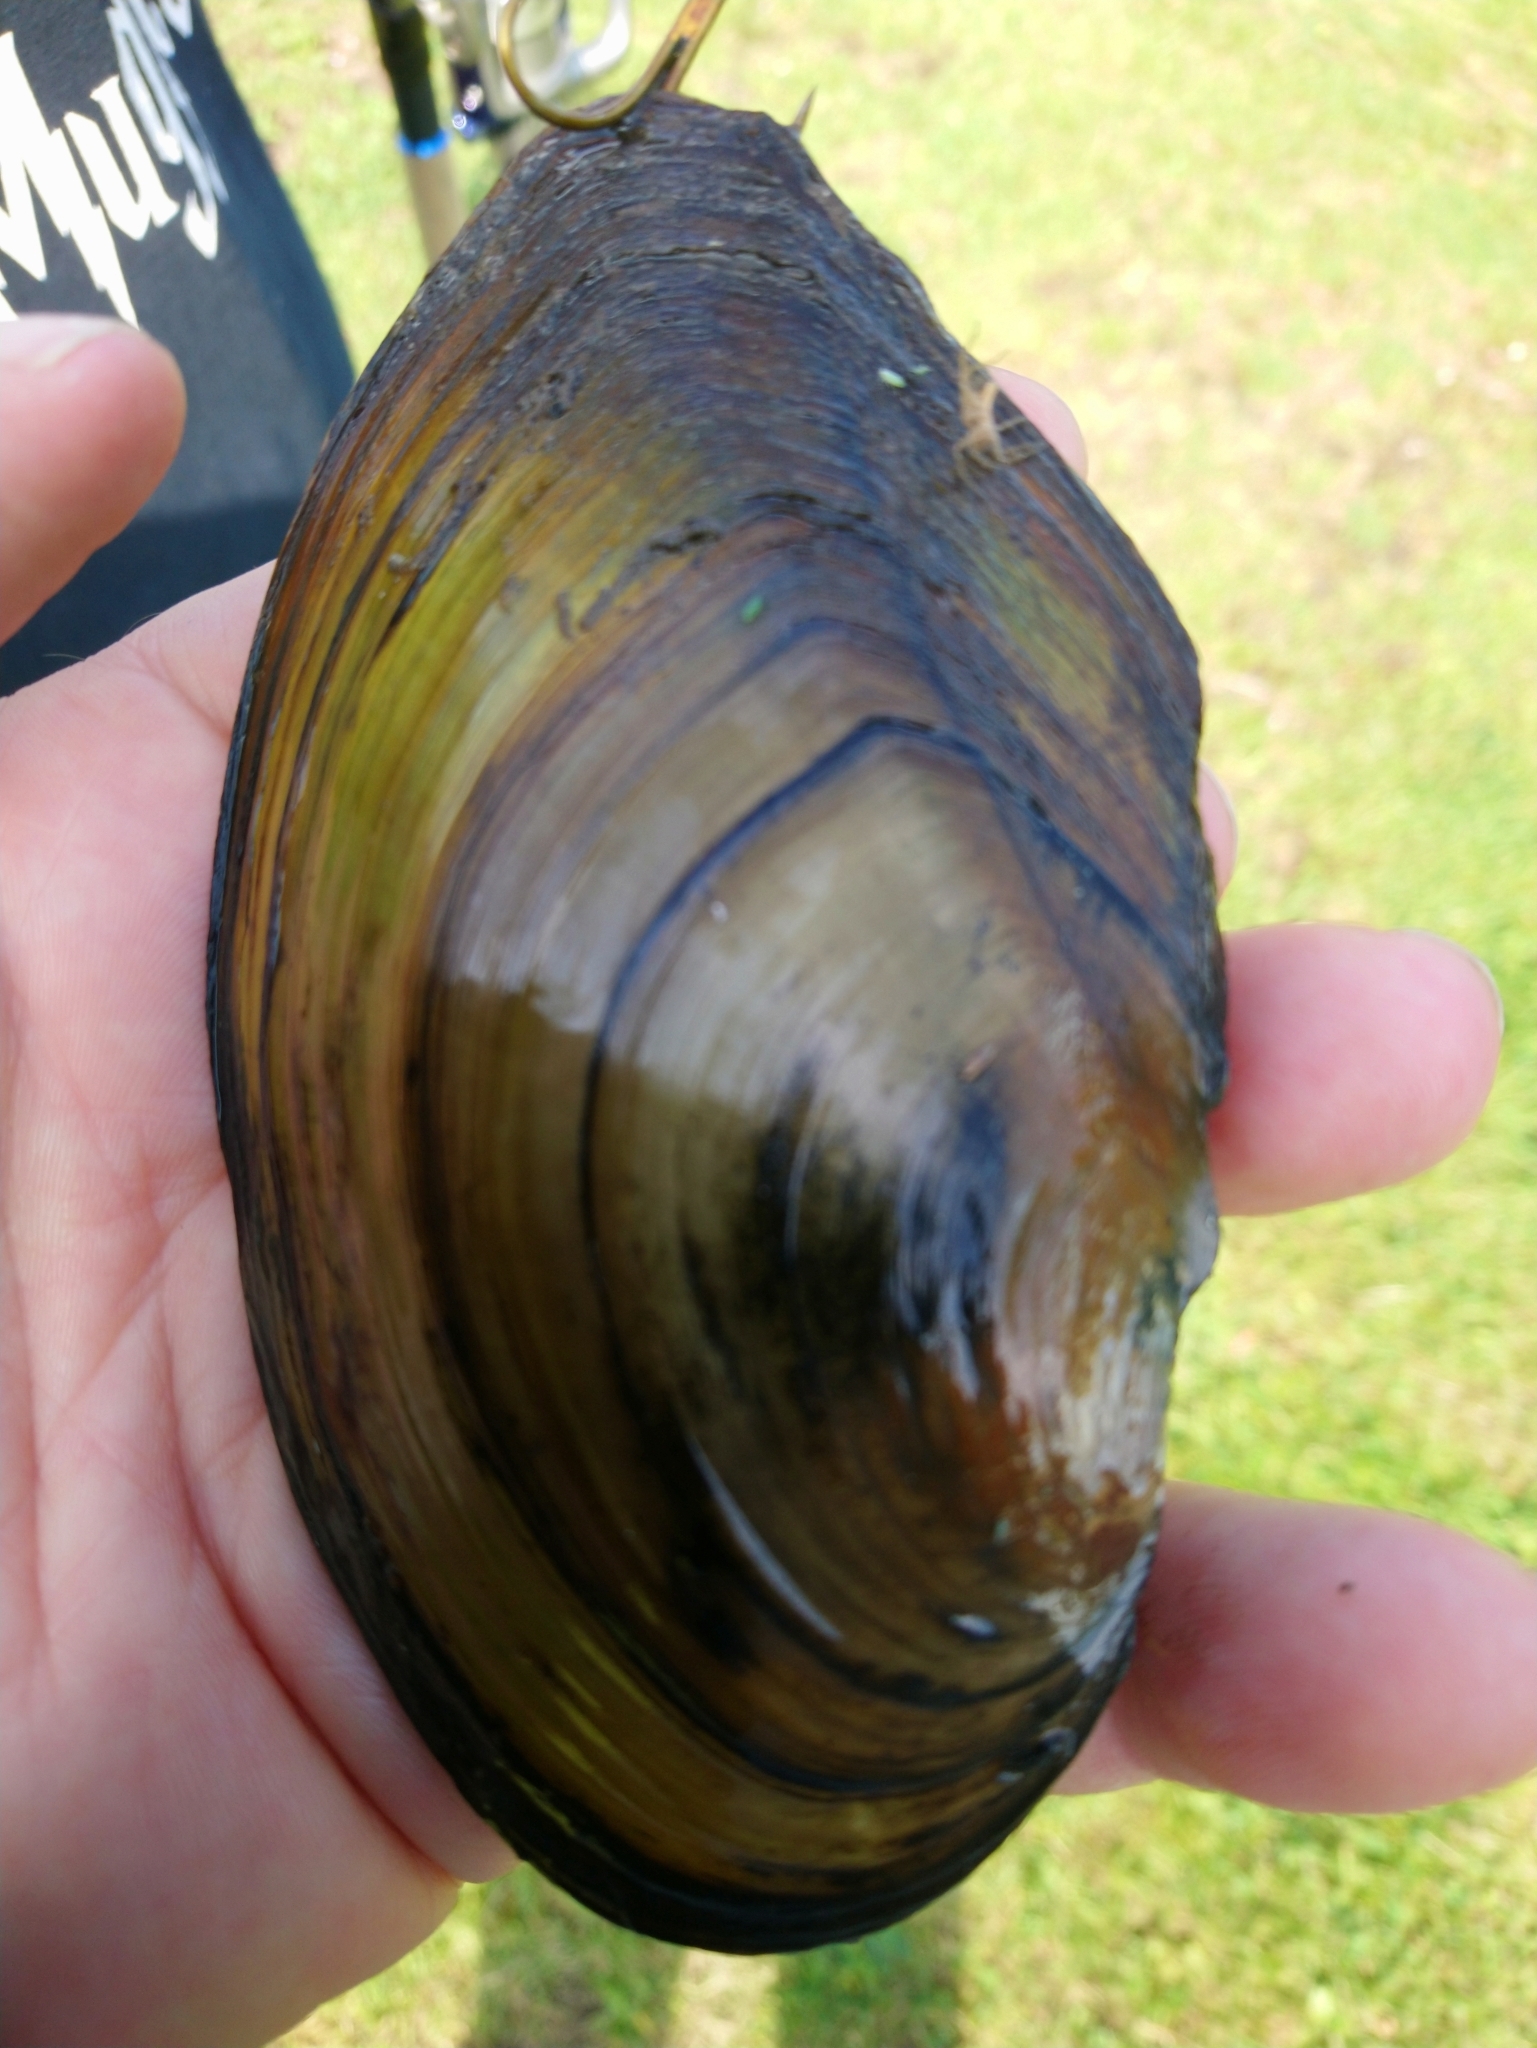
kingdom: Animalia
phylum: Mollusca
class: Bivalvia
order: Unionida
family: Unionidae
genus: Anodonta
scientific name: Anodonta anatina
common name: Duck mussel
